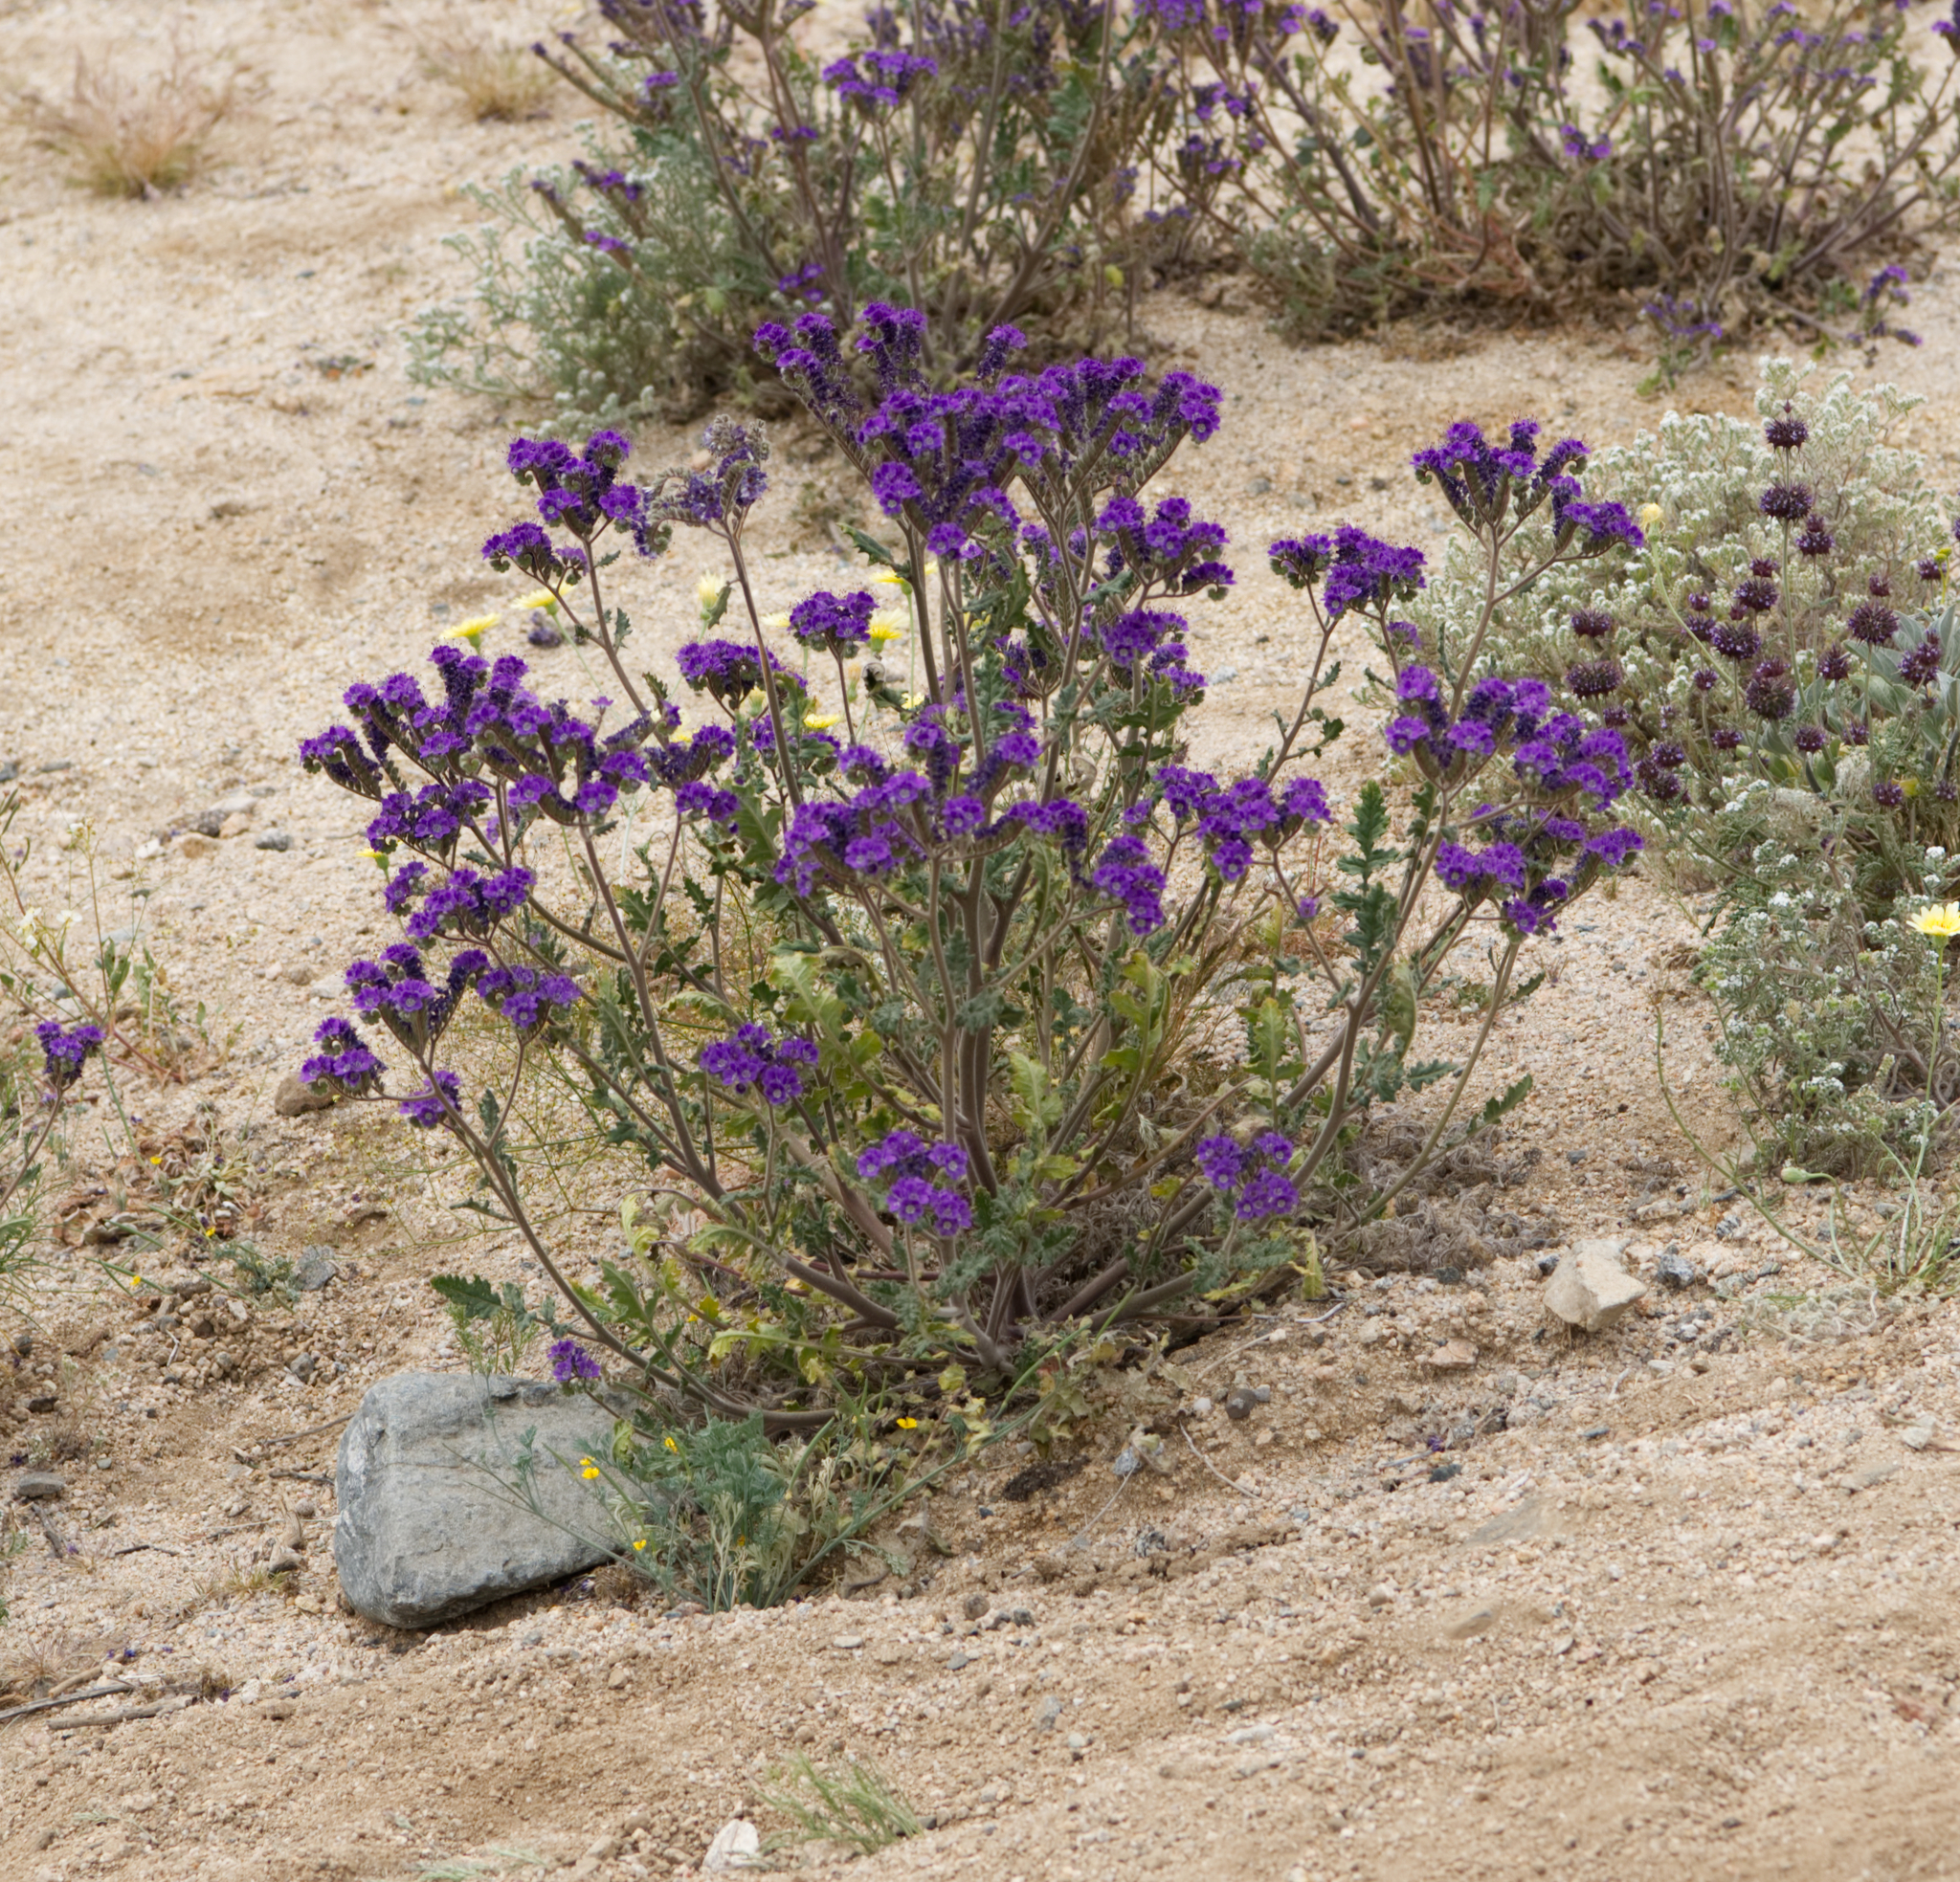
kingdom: Plantae
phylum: Tracheophyta
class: Magnoliopsida
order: Boraginales
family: Hydrophyllaceae
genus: Phacelia
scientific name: Phacelia crenulata
